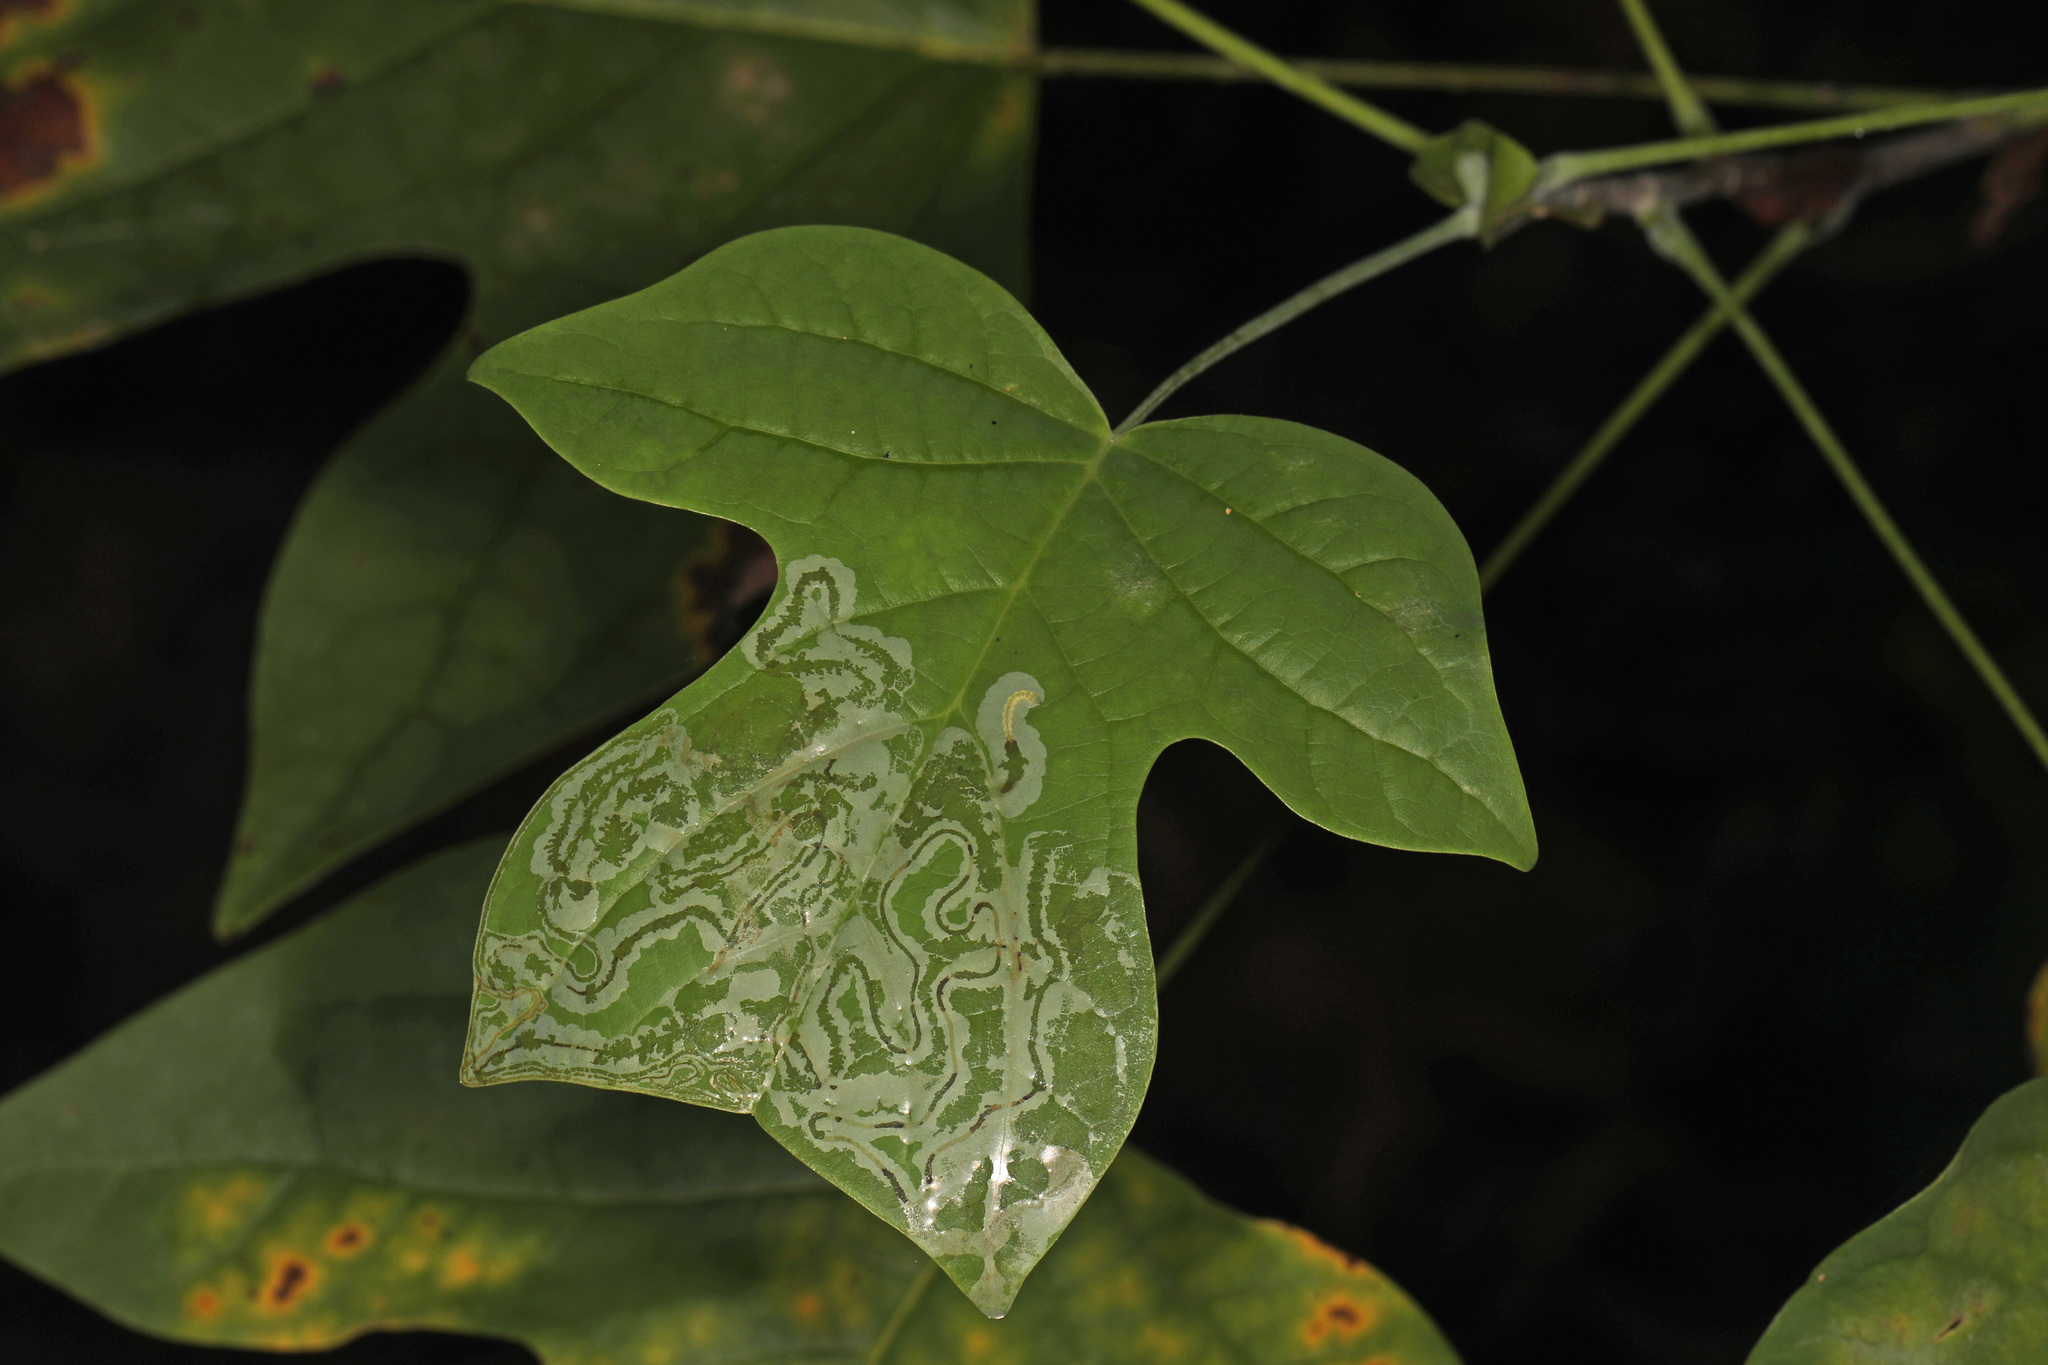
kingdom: Animalia
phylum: Arthropoda
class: Insecta
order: Lepidoptera
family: Gracillariidae
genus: Phyllocnistis
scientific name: Phyllocnistis liriodendronella
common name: Tulip tree leaf miner
